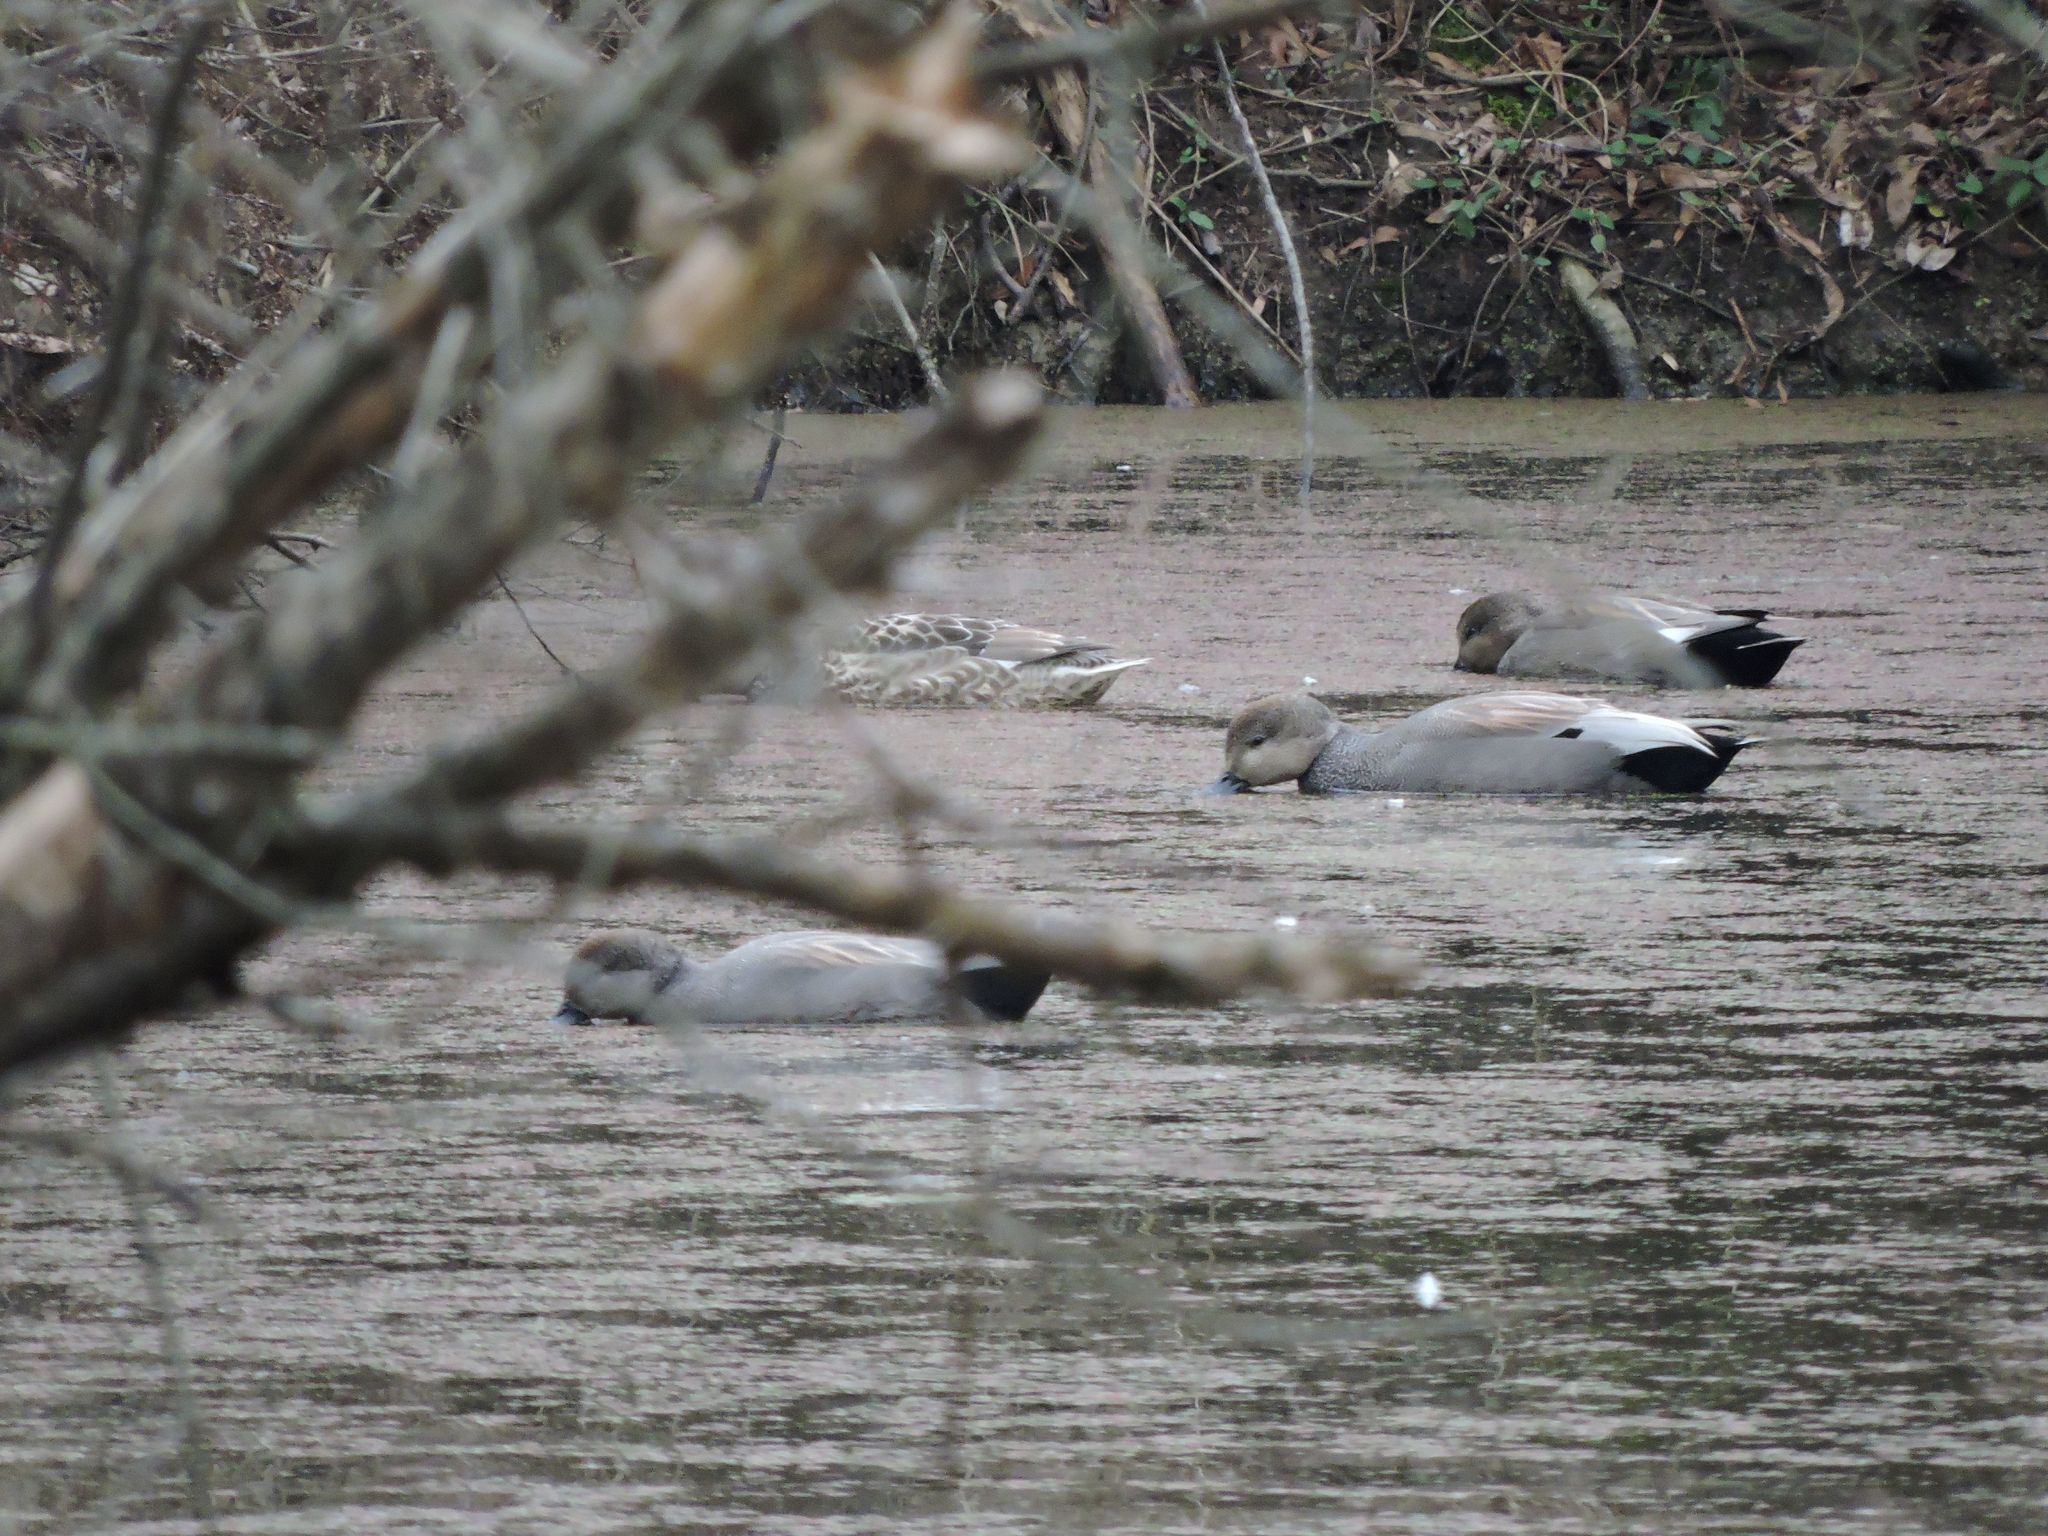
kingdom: Animalia
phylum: Chordata
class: Aves
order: Anseriformes
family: Anatidae
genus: Mareca
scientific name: Mareca strepera
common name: Gadwall
